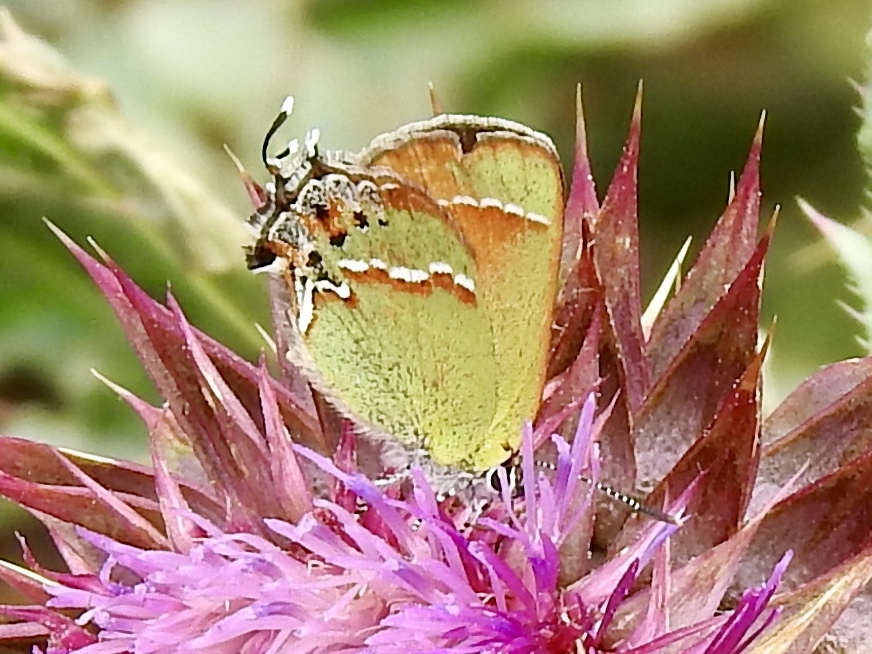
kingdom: Animalia
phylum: Arthropoda
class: Insecta
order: Lepidoptera
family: Lycaenidae
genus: Mitoura
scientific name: Mitoura gryneus
